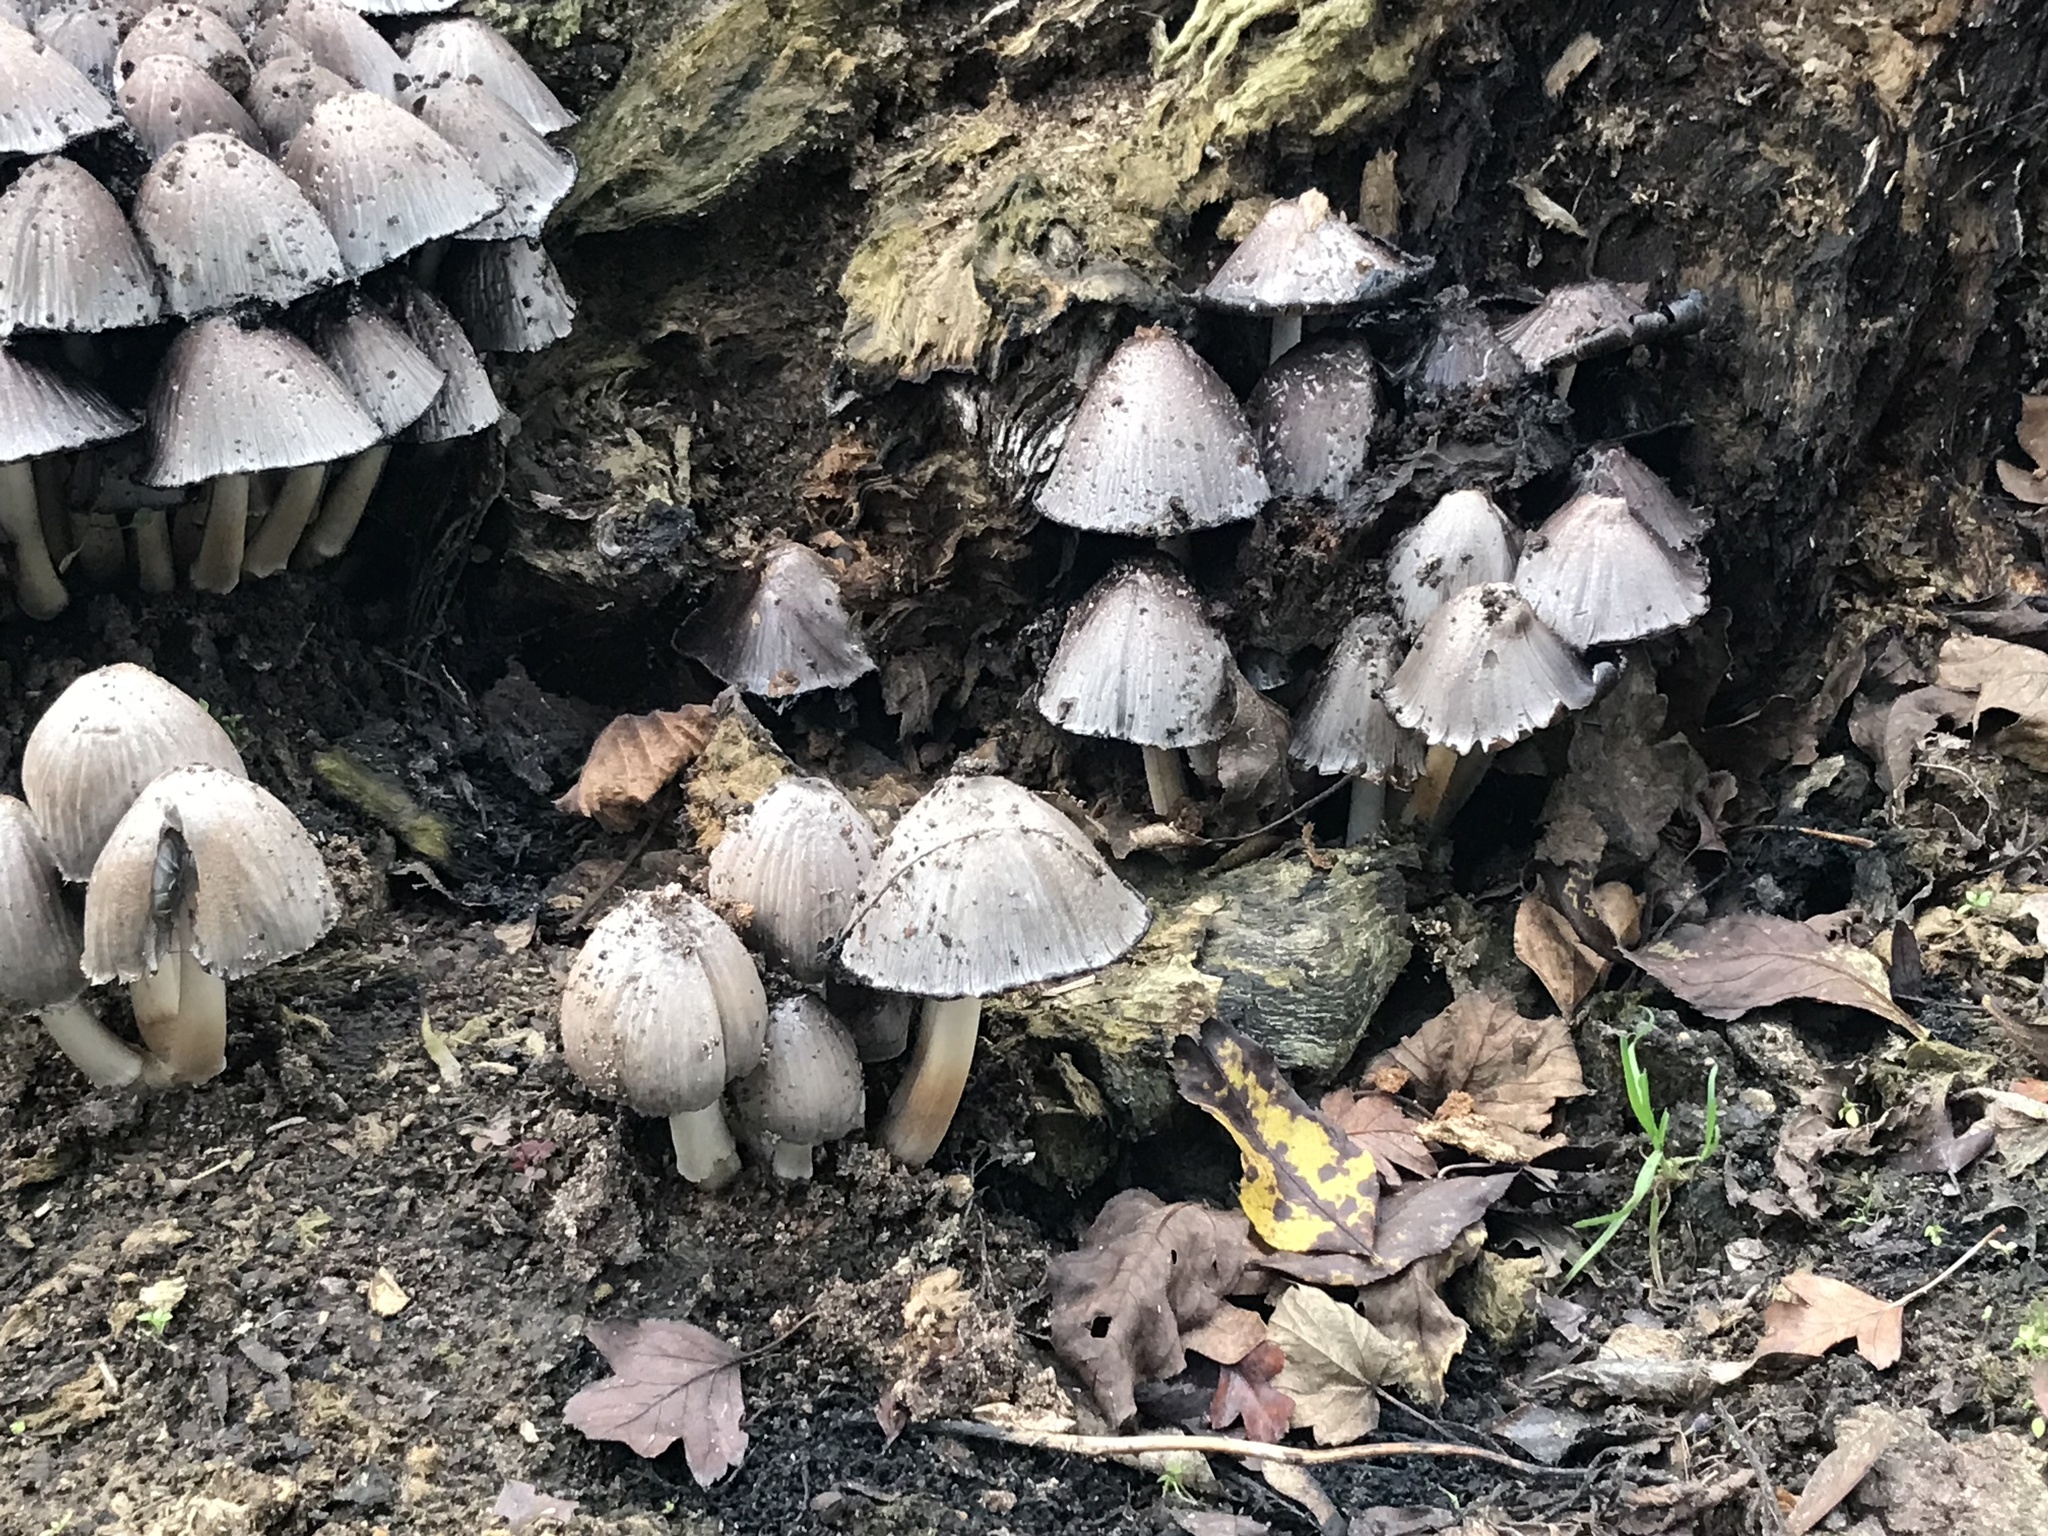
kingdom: Fungi
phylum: Basidiomycota
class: Agaricomycetes
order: Agaricales
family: Psathyrellaceae
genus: Coprinopsis
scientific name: Coprinopsis atramentaria
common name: Common ink-cap
